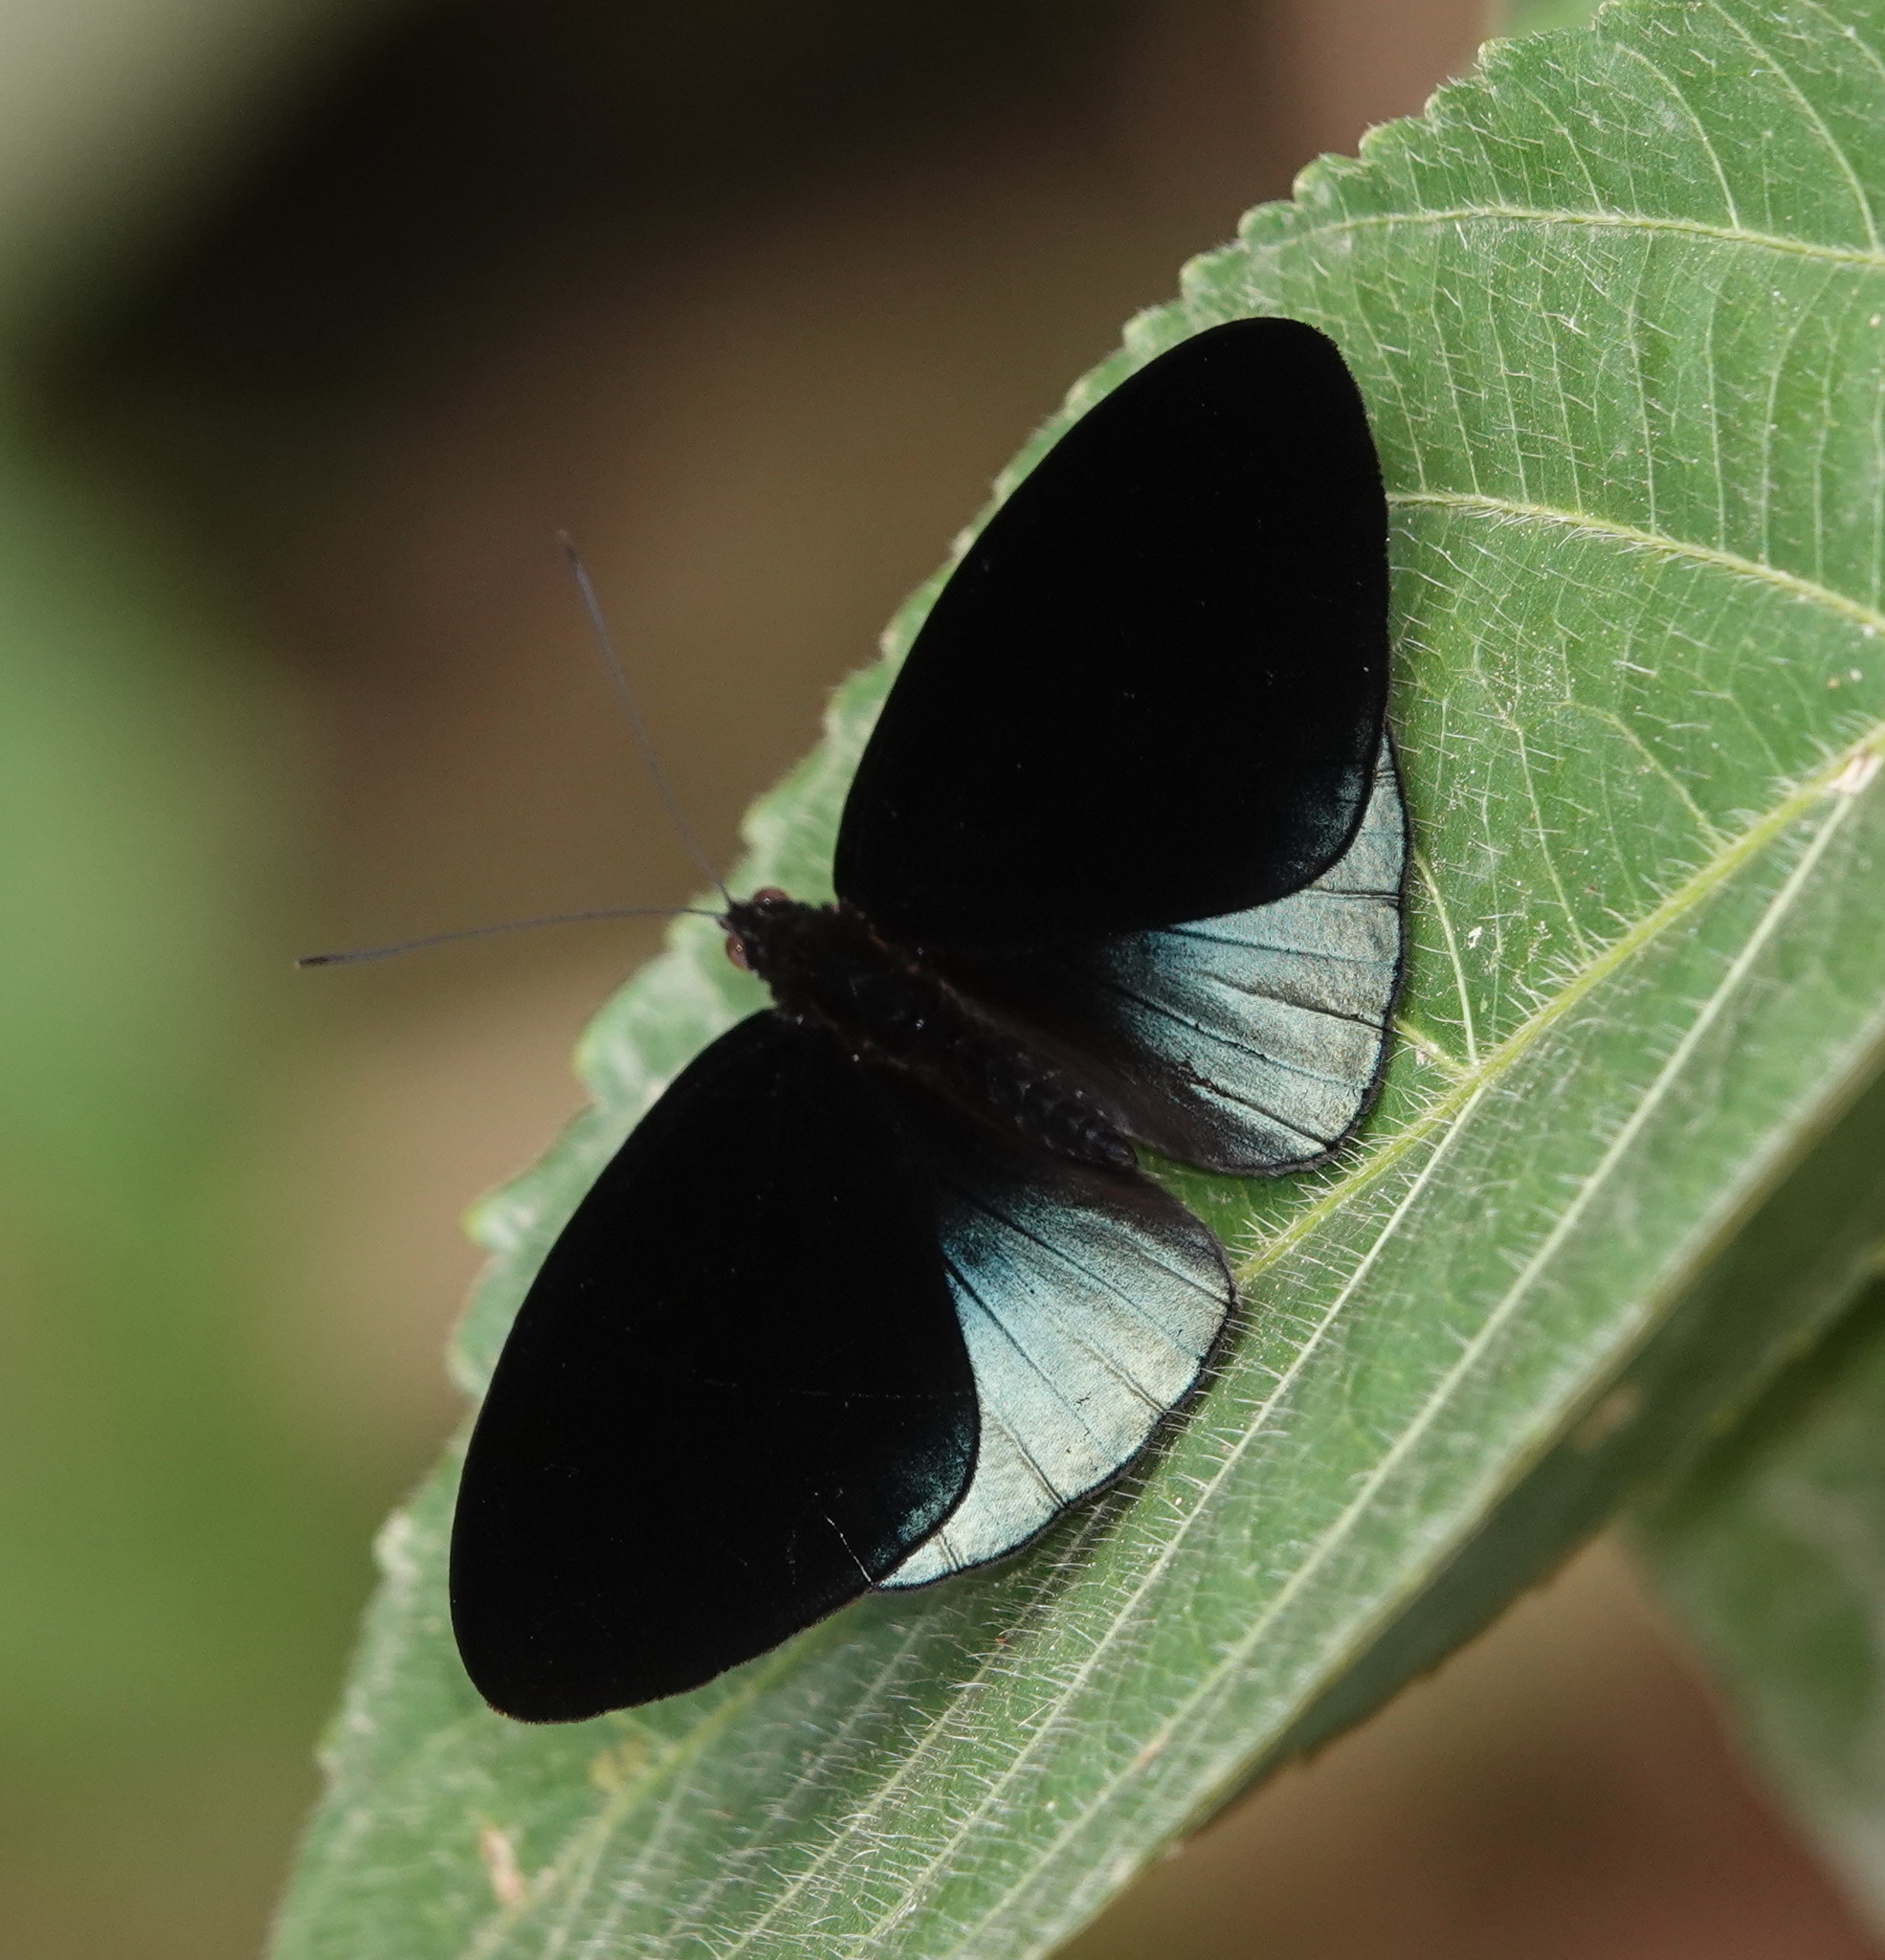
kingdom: Animalia
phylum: Arthropoda
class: Insecta
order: Lepidoptera
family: Nymphalidae
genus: Eunica
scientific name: Eunica chlororhoa
